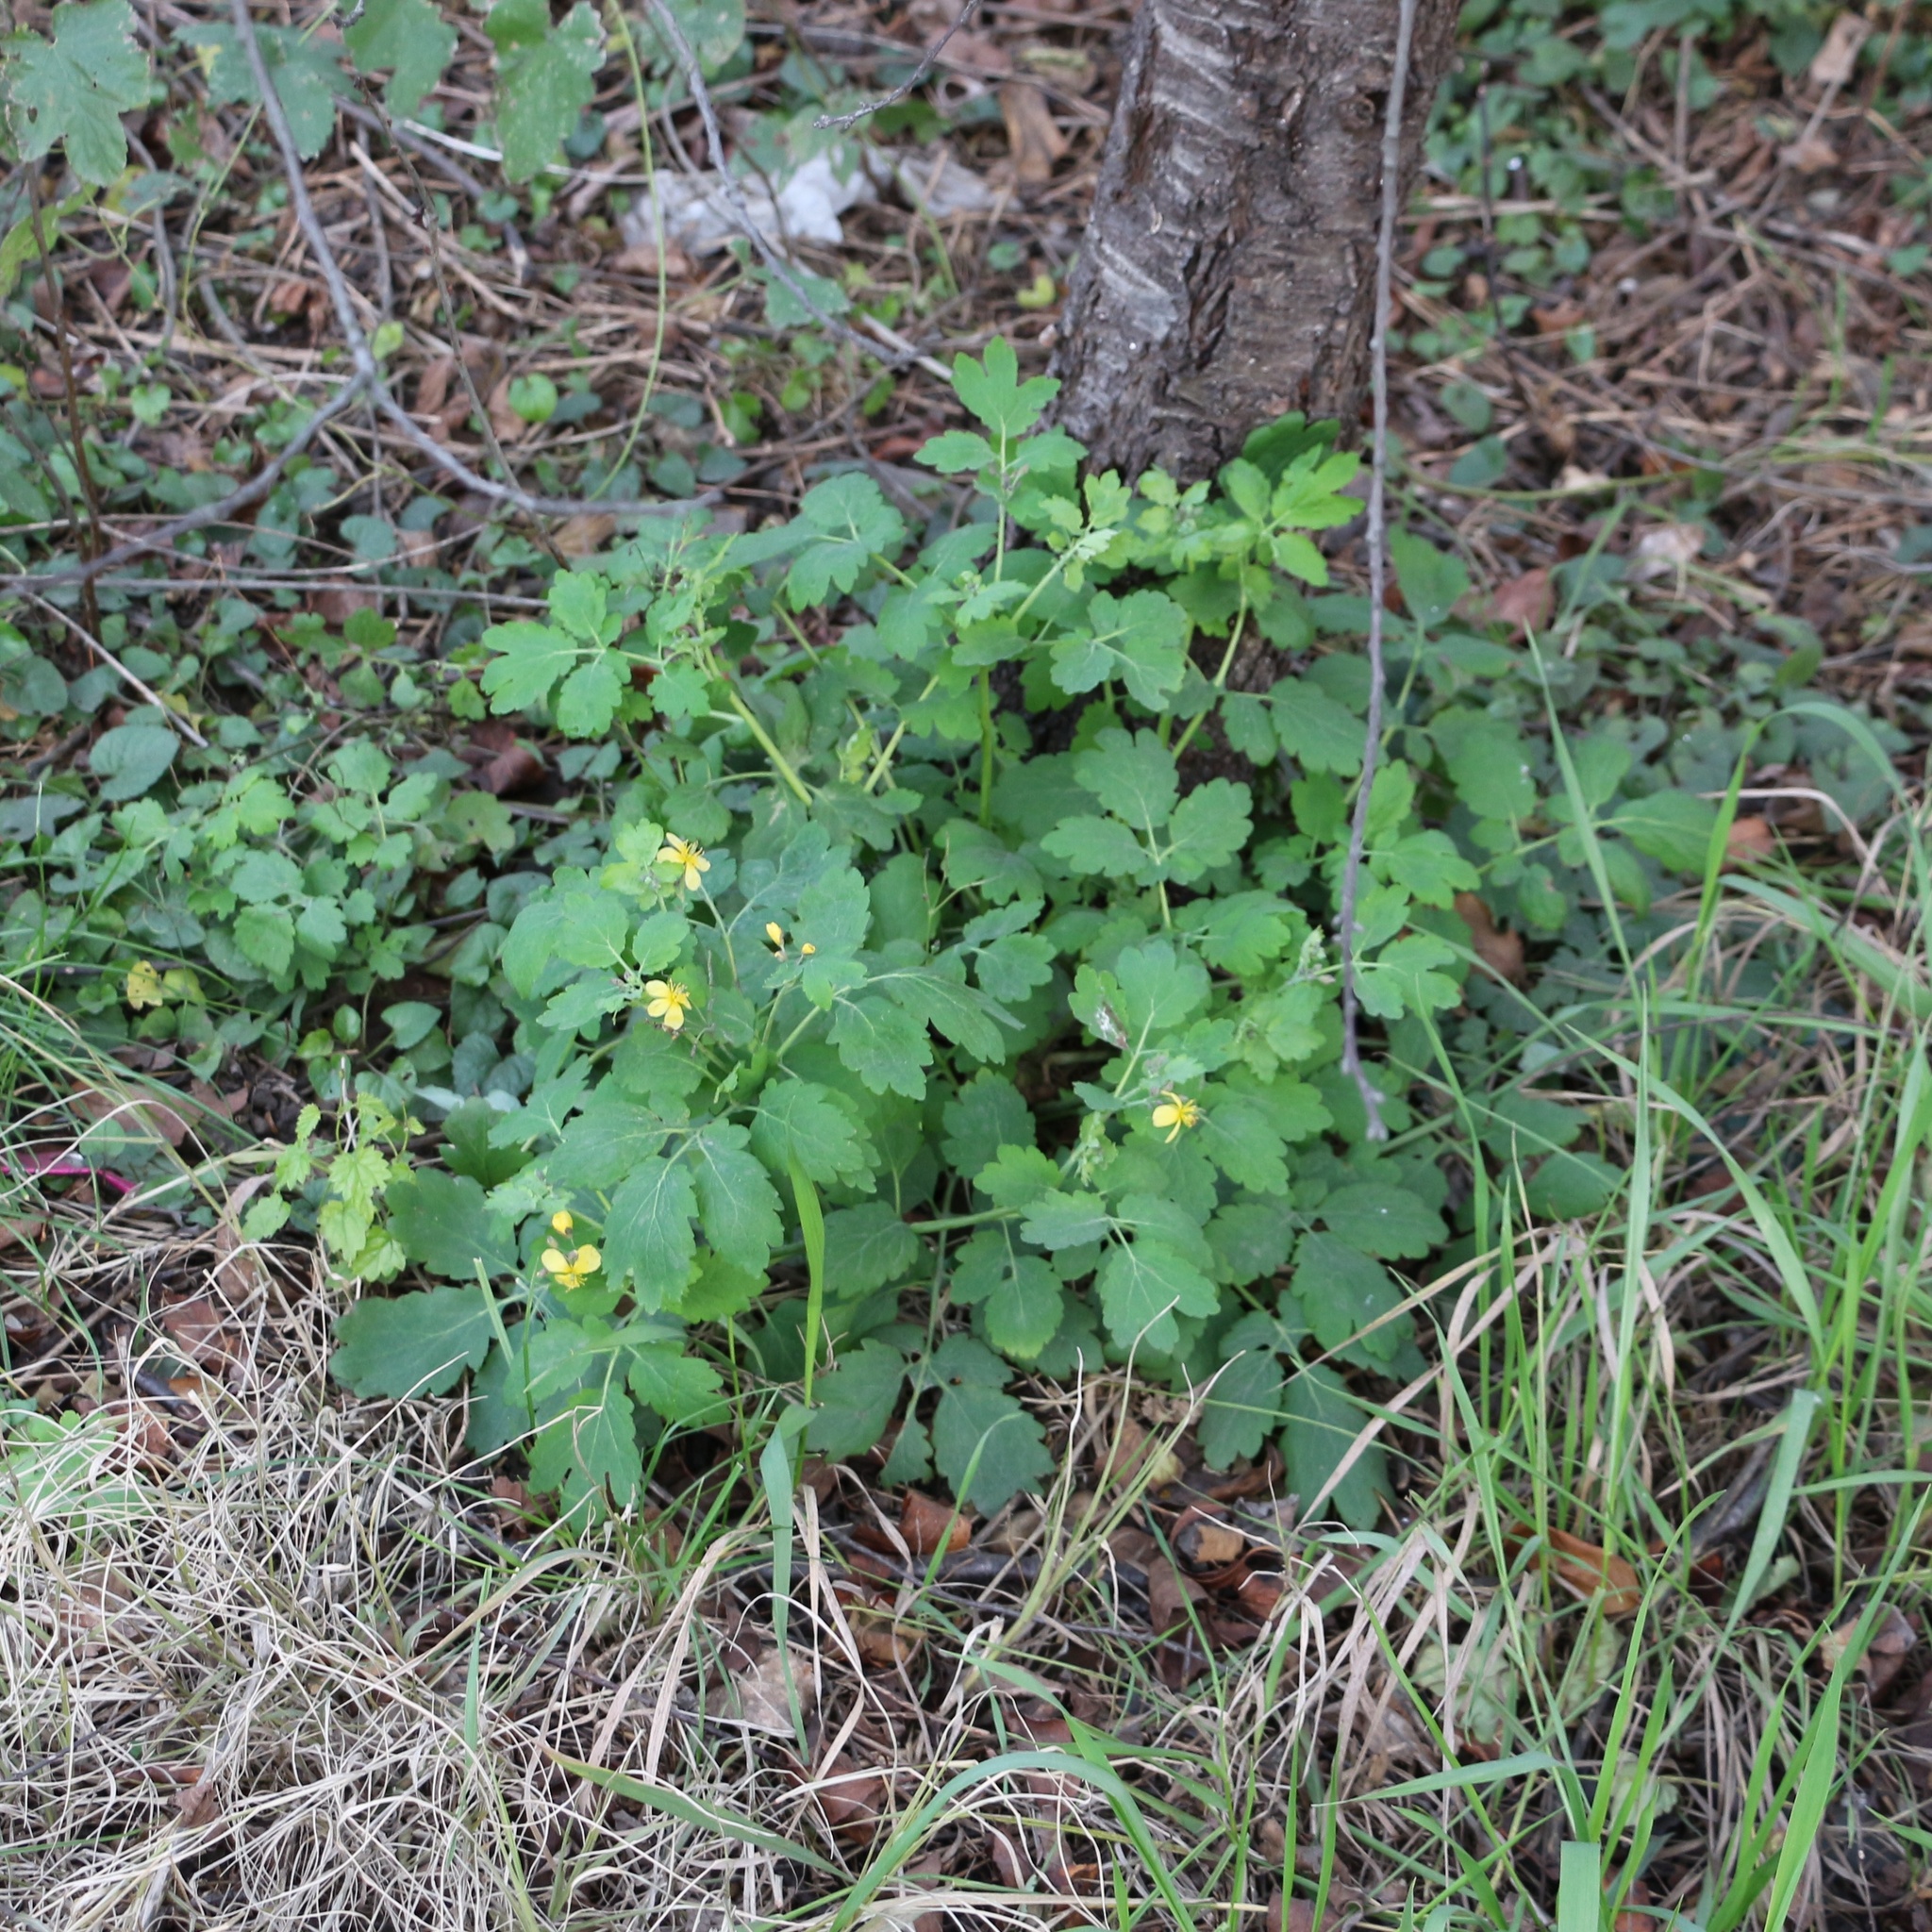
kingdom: Plantae
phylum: Tracheophyta
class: Magnoliopsida
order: Ranunculales
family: Papaveraceae
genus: Chelidonium
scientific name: Chelidonium majus
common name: Greater celandine
